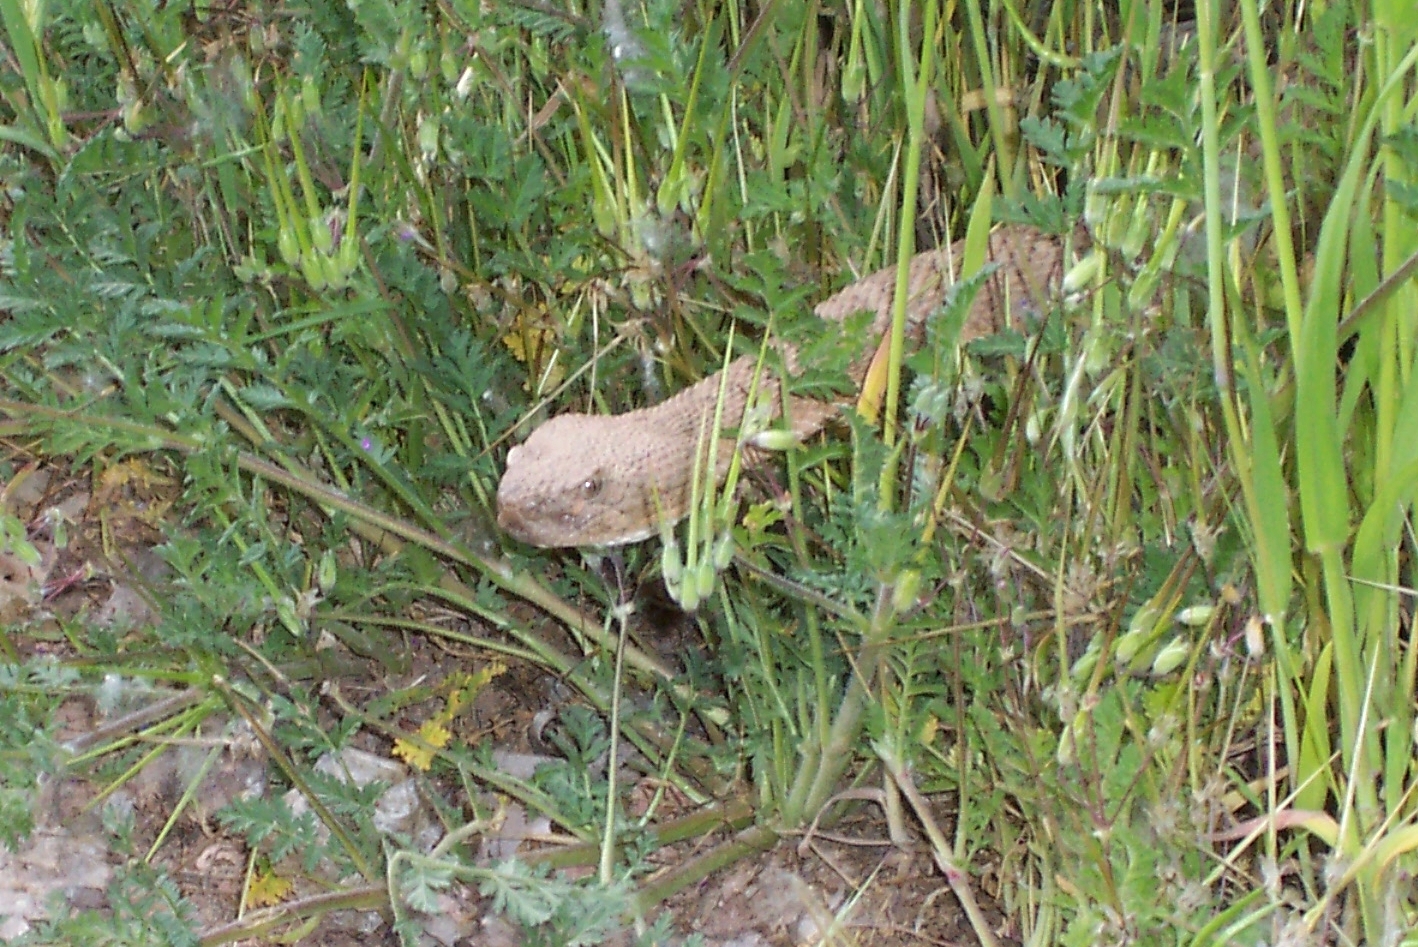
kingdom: Animalia
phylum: Chordata
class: Squamata
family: Viperidae
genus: Crotalus
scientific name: Crotalus oreganus
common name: Abyssus
